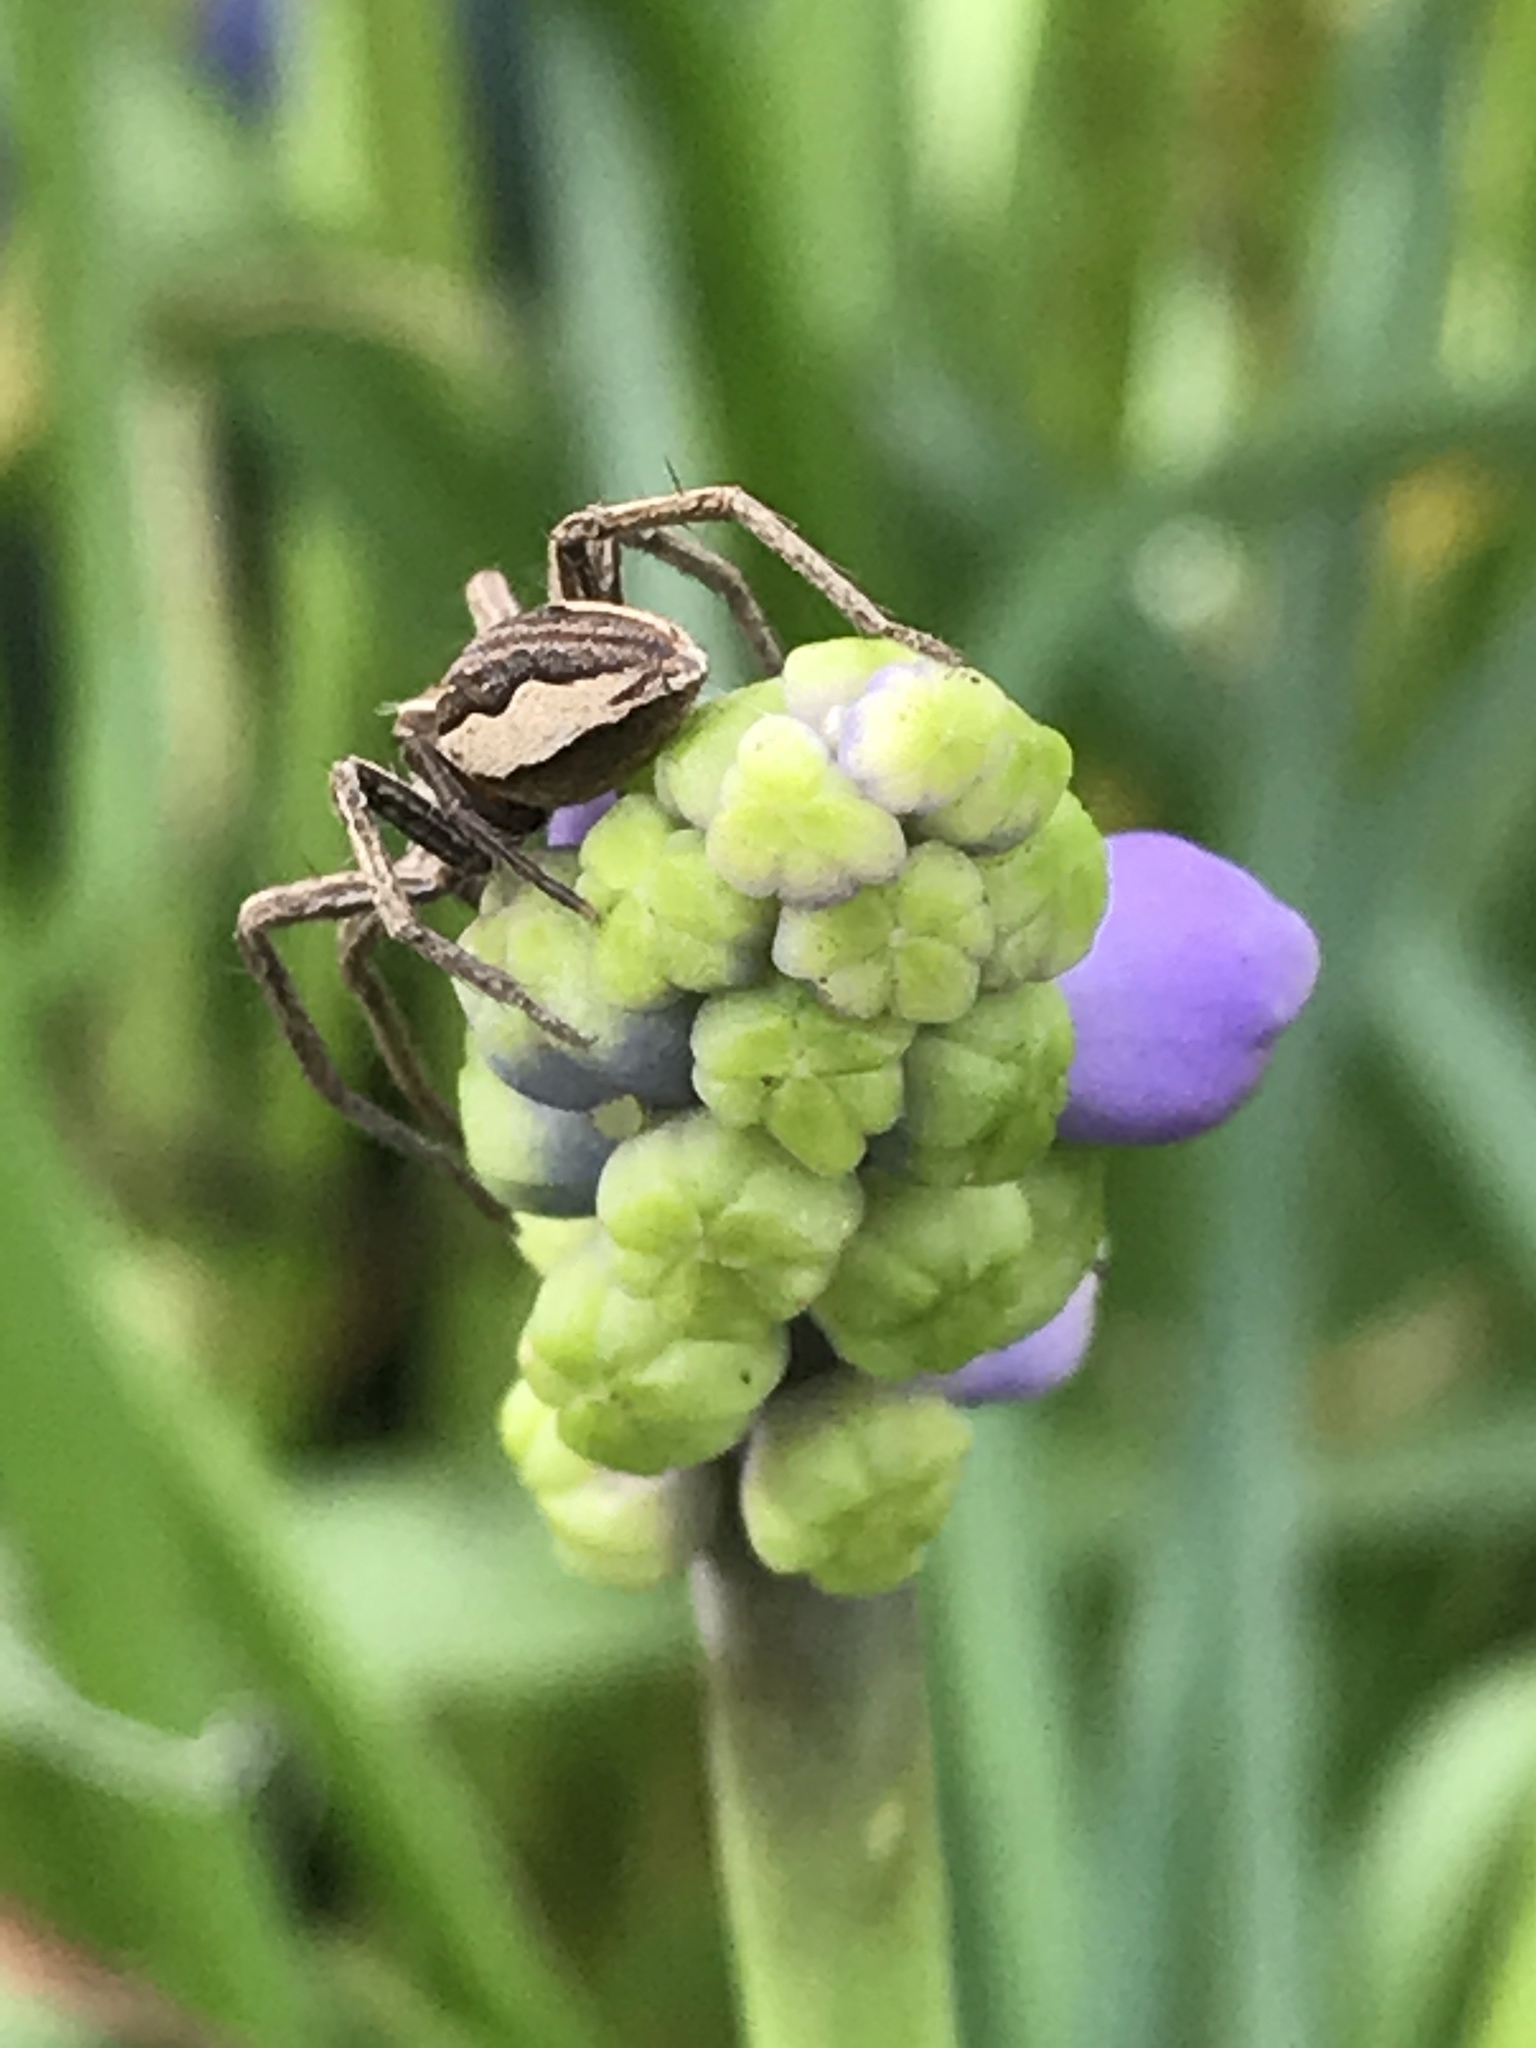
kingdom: Animalia
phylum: Arthropoda
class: Arachnida
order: Araneae
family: Pisauridae
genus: Pisaura
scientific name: Pisaura mirabilis
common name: Tent spider
